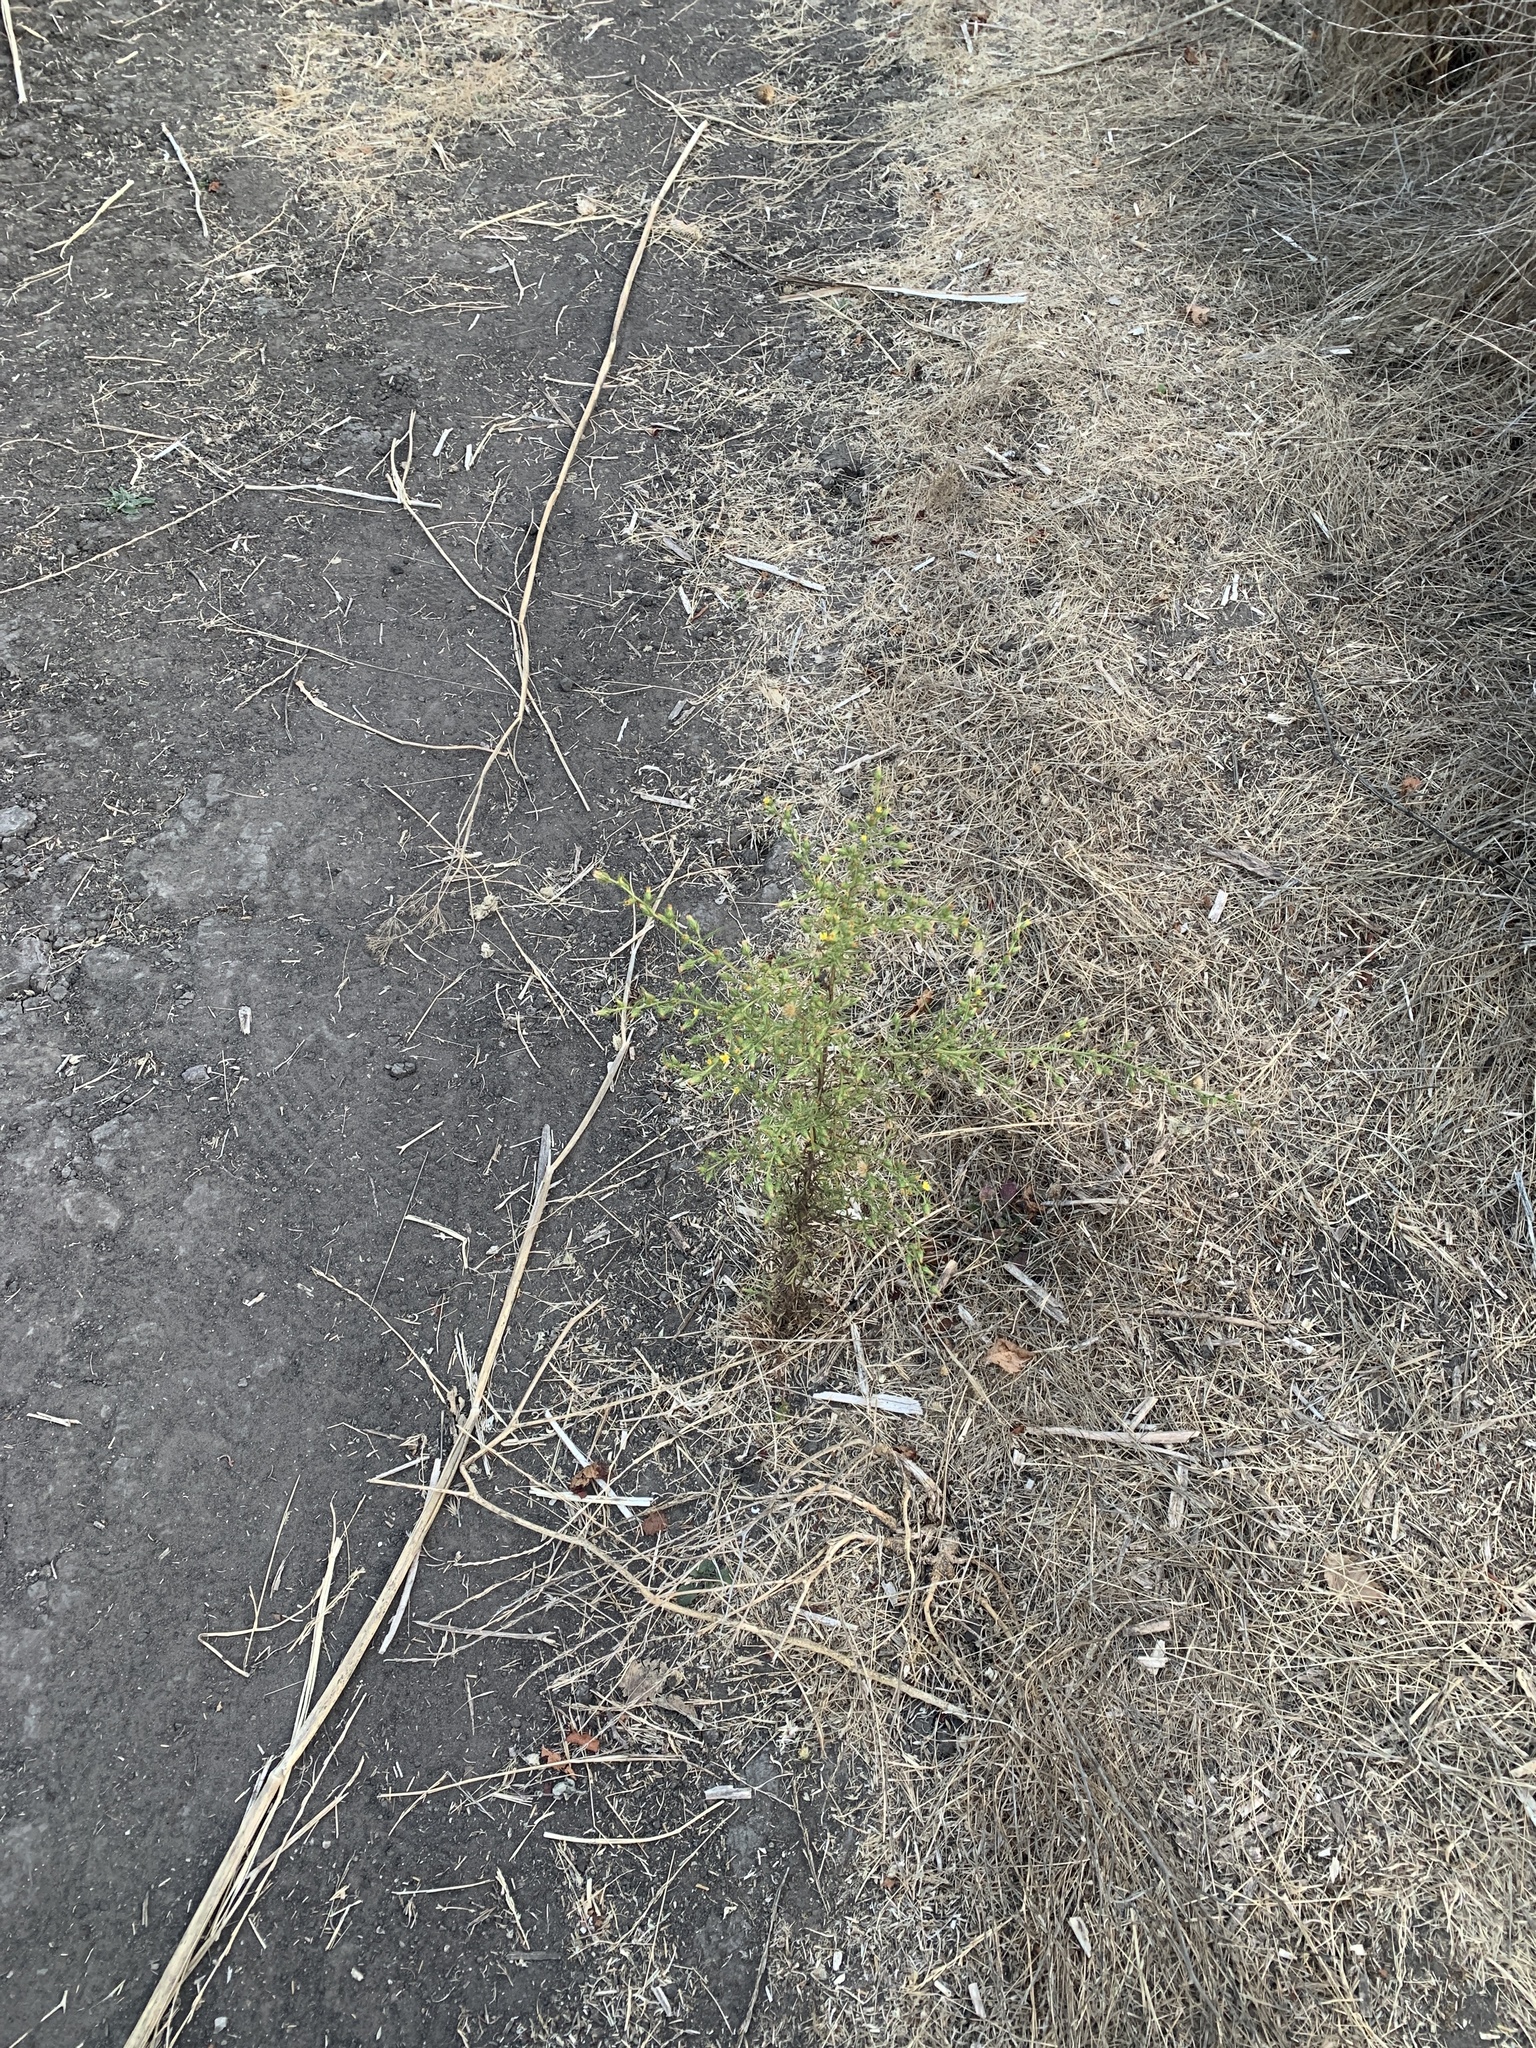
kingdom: Plantae
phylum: Tracheophyta
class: Magnoliopsida
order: Asterales
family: Asteraceae
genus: Dittrichia
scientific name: Dittrichia graveolens
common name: Stinking fleabane
